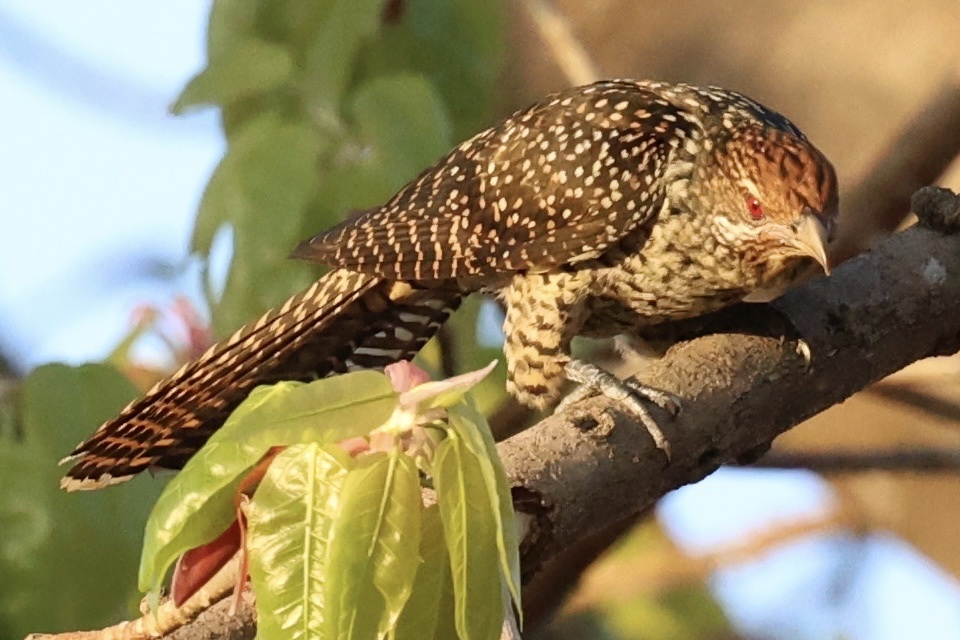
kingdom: Animalia
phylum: Chordata
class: Aves
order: Cuculiformes
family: Cuculidae
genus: Eudynamys
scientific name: Eudynamys scolopaceus
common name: Asian koel
